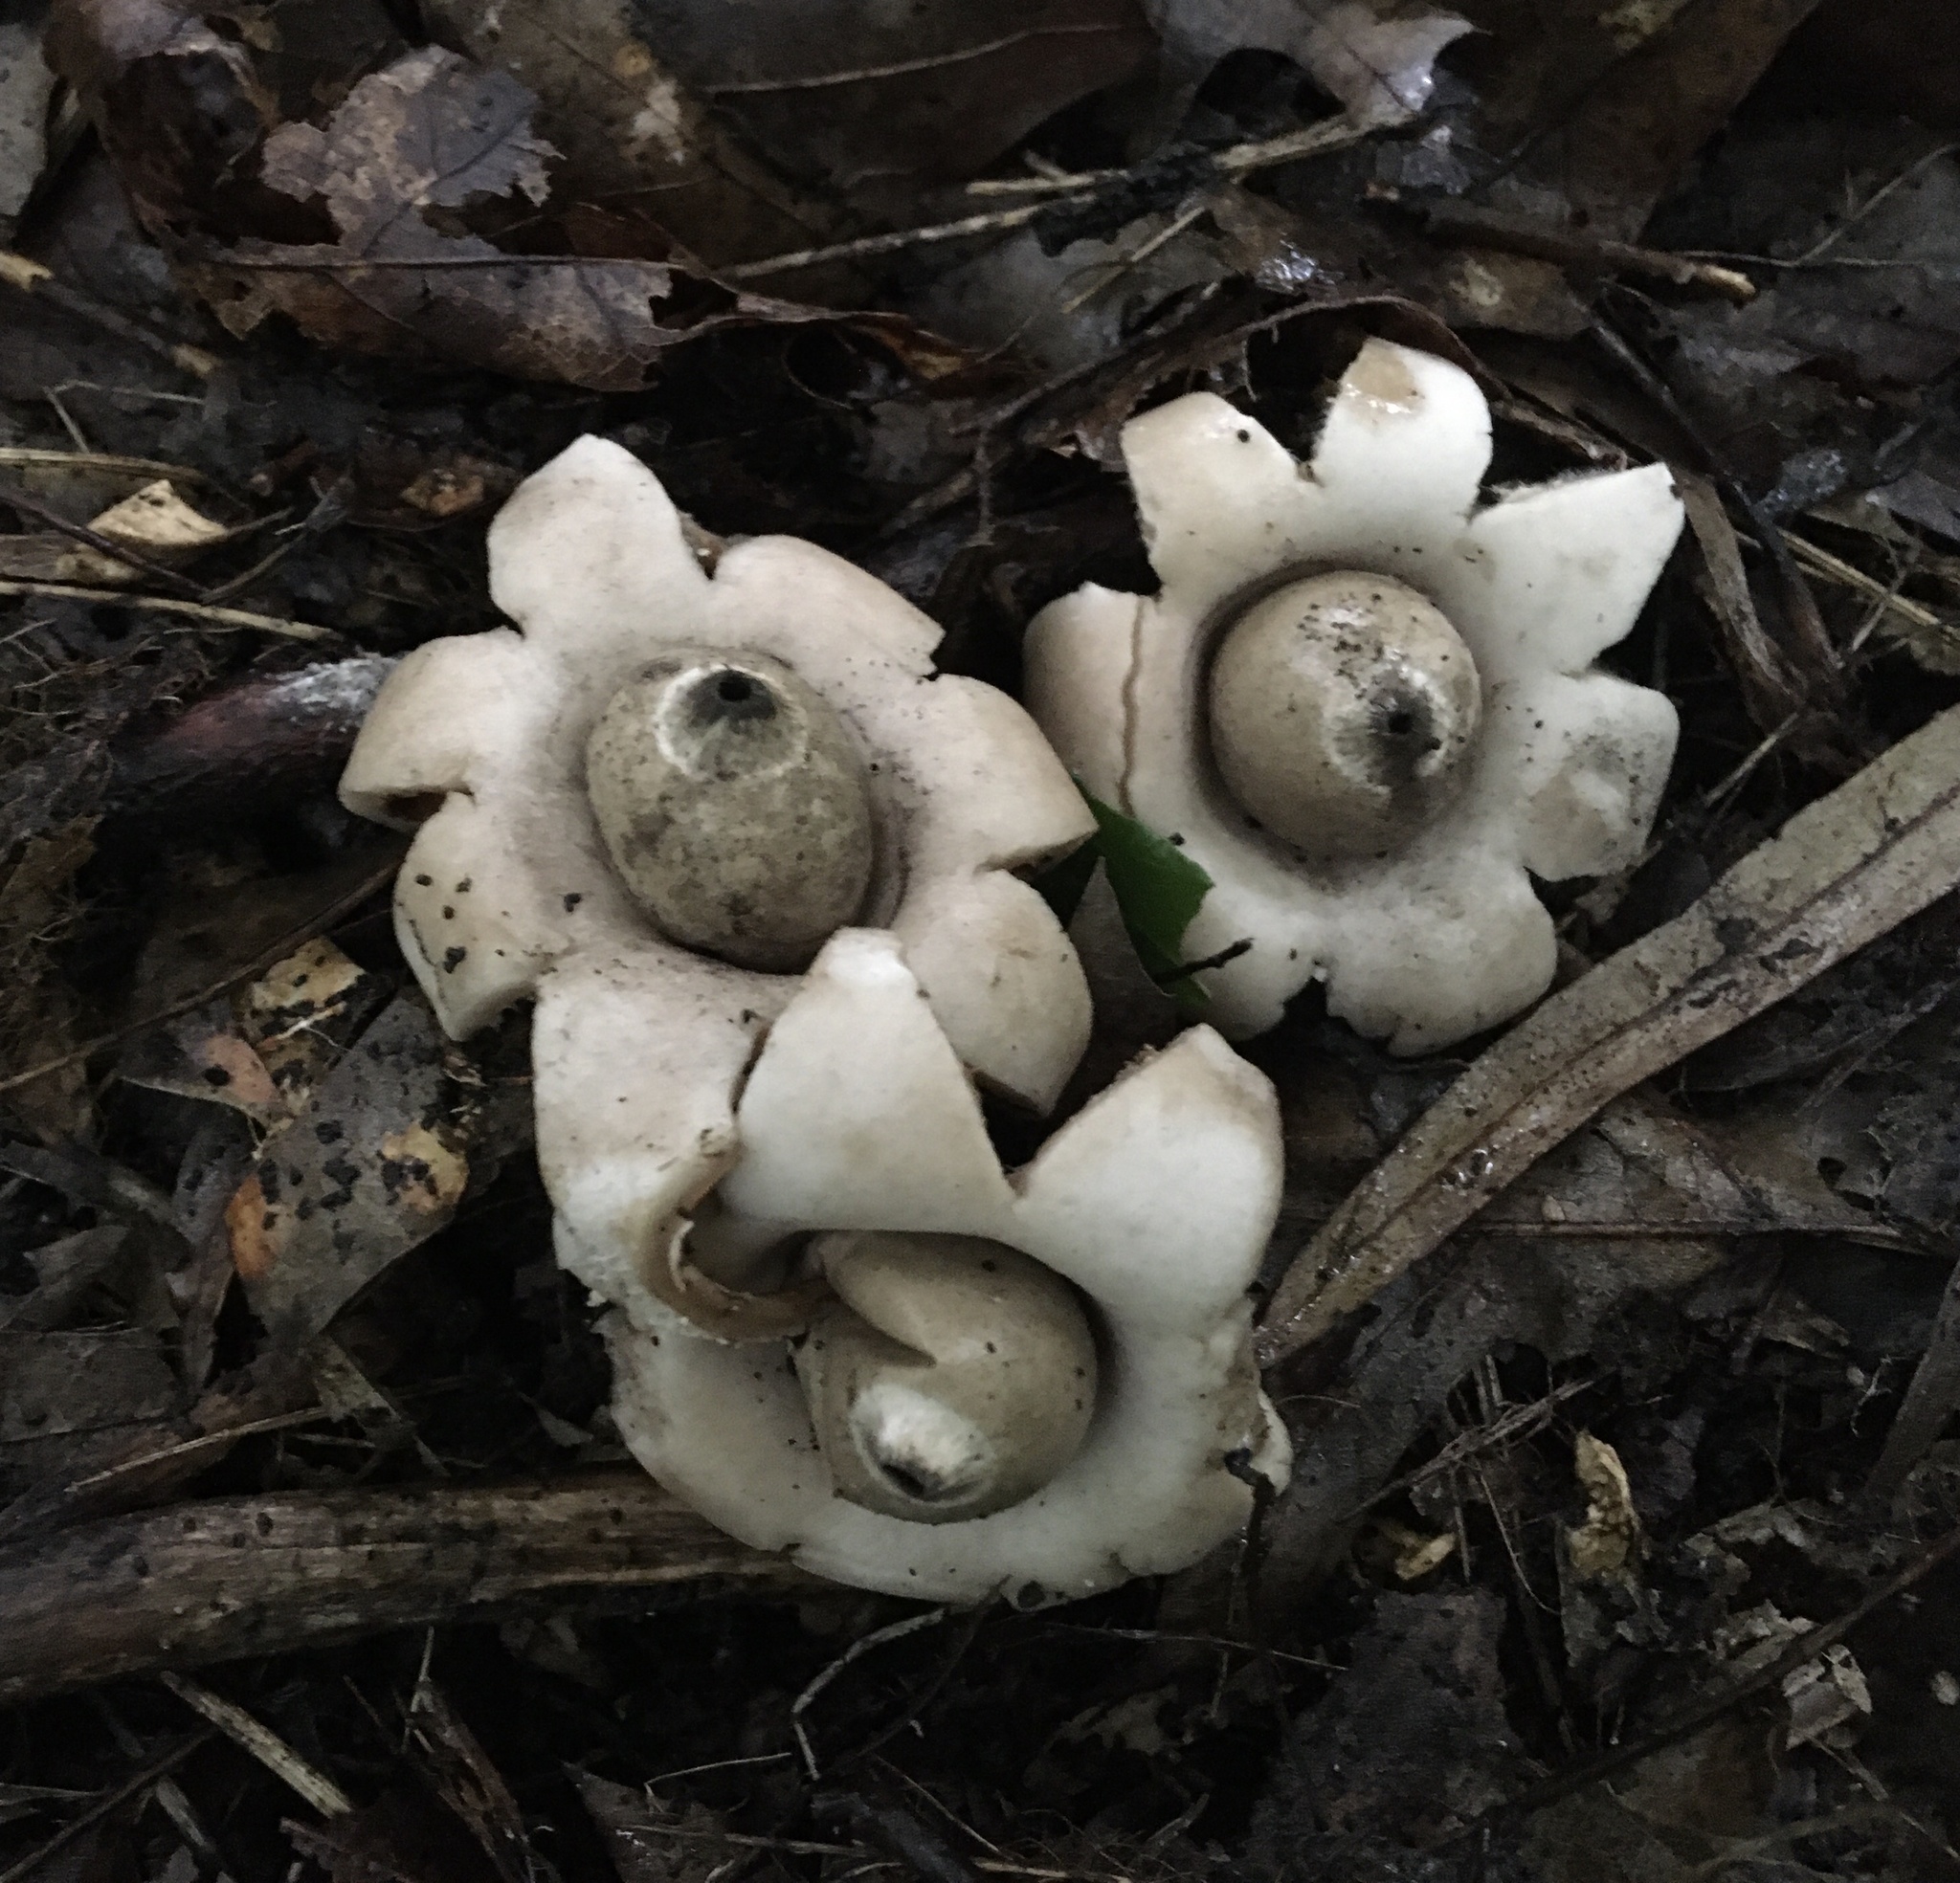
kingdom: Fungi
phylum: Basidiomycota
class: Agaricomycetes
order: Geastrales
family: Geastraceae
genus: Geastrum
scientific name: Geastrum saccatum
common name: Rounded earthstar
